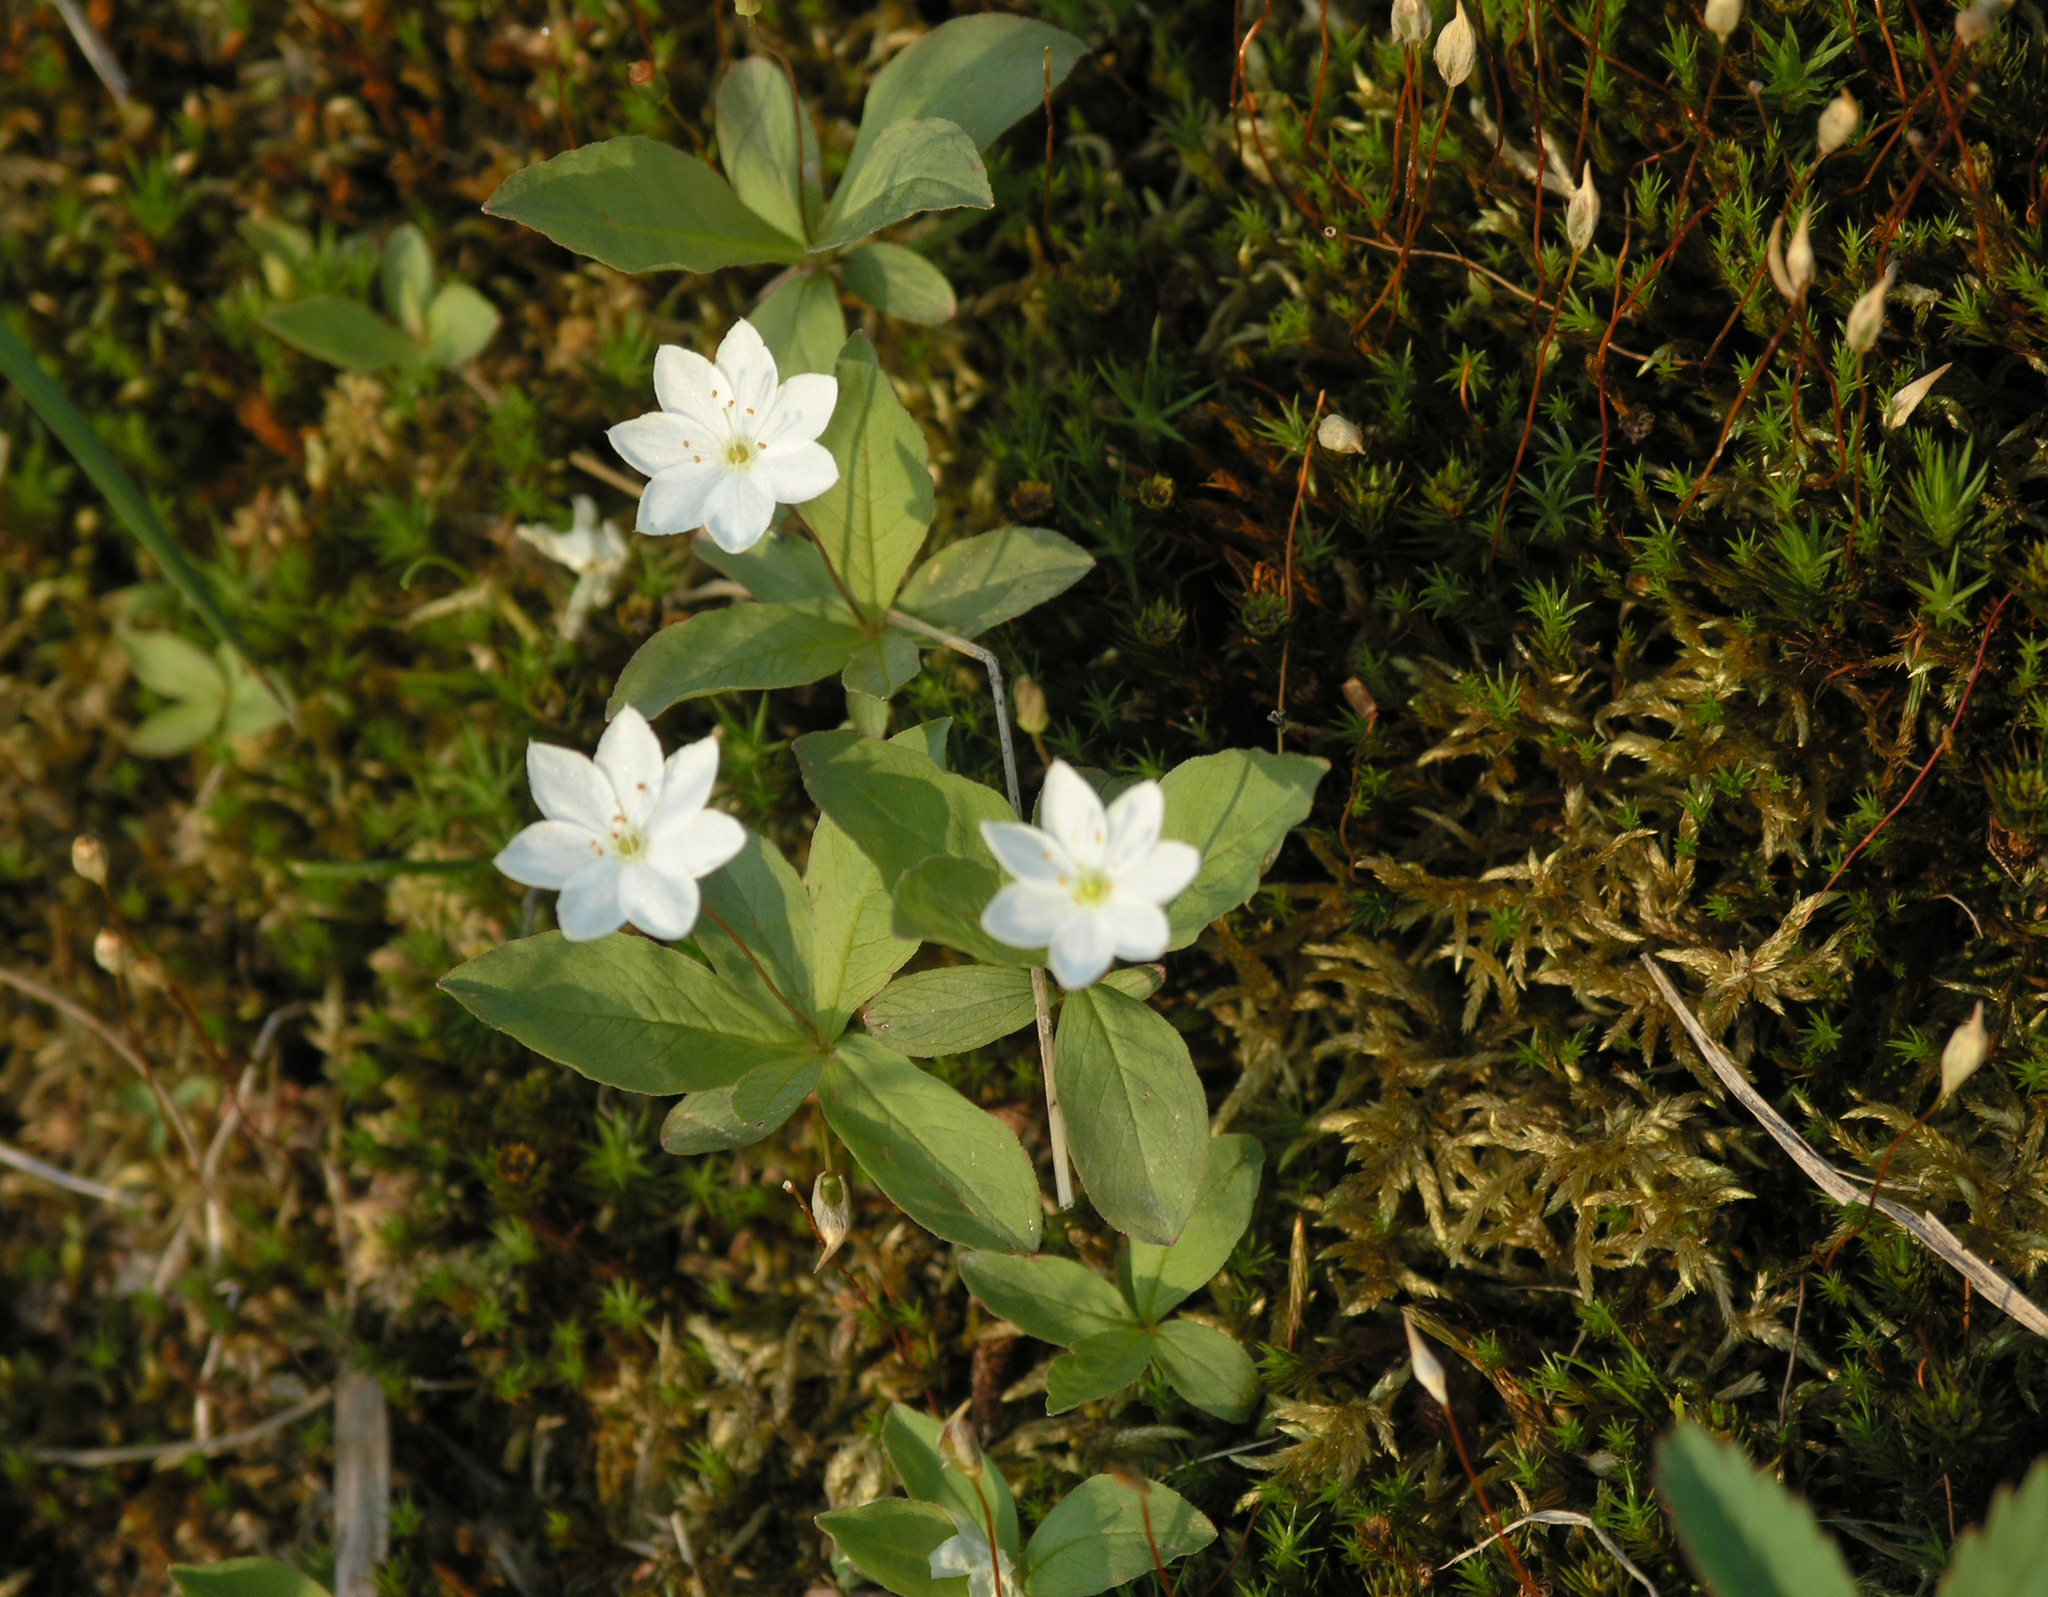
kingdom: Plantae
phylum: Tracheophyta
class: Magnoliopsida
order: Ericales
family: Primulaceae
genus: Lysimachia
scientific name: Lysimachia europaea
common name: Arctic starflower
